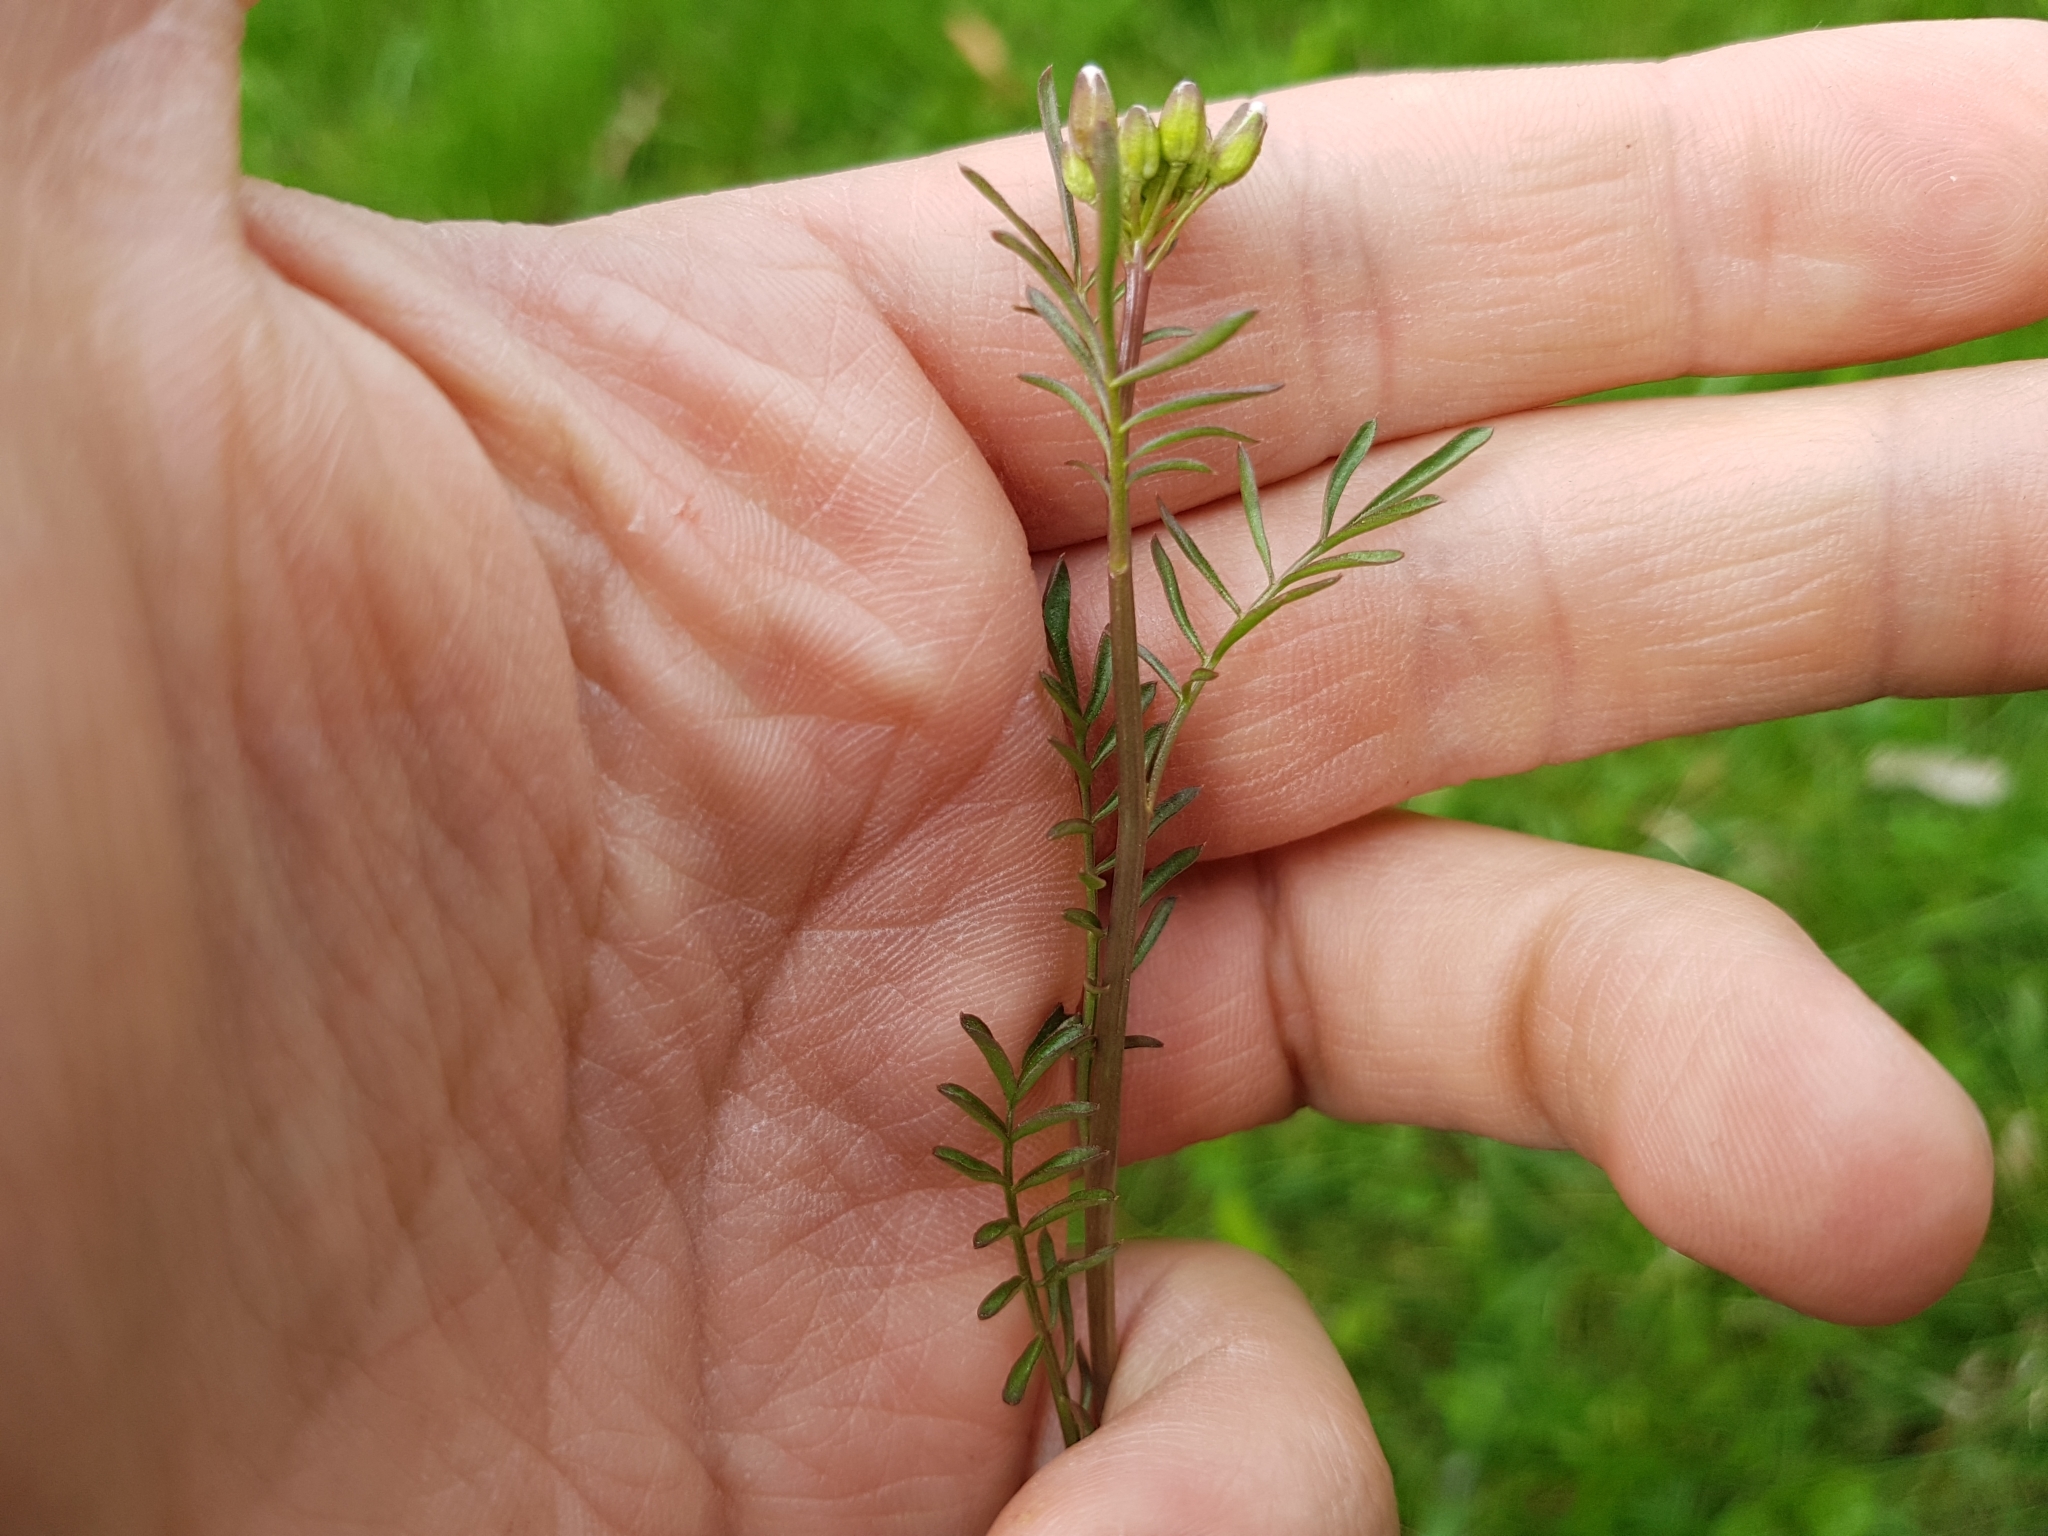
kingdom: Plantae
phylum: Tracheophyta
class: Magnoliopsida
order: Brassicales
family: Brassicaceae
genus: Cardamine
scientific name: Cardamine pratensis
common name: Cuckoo flower
